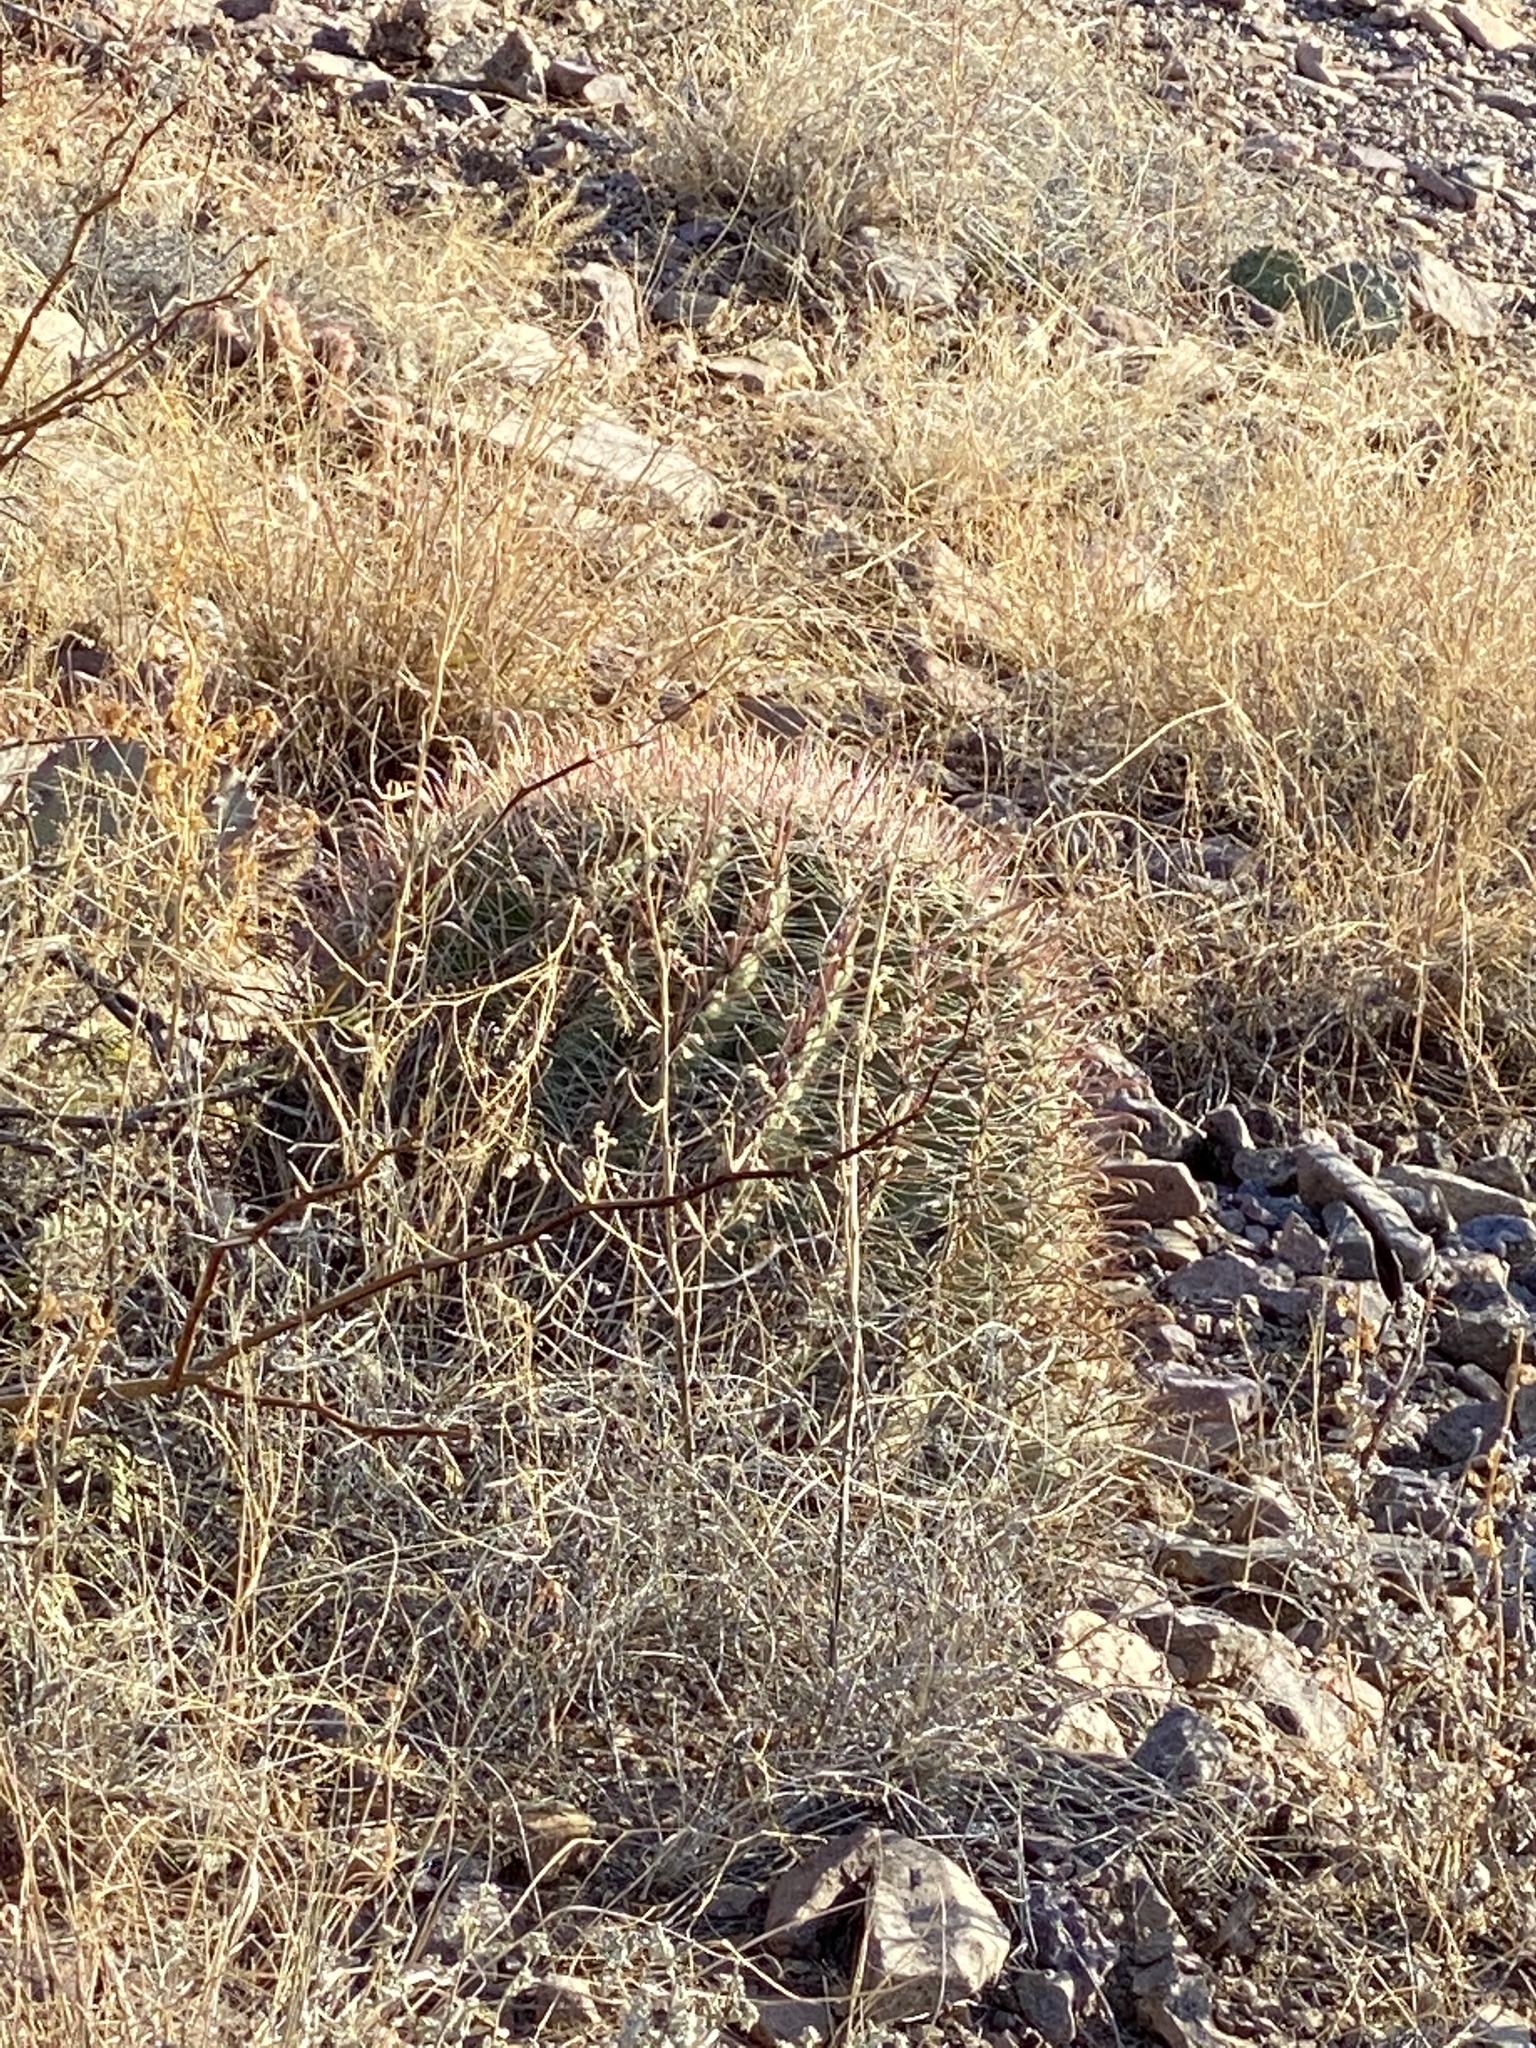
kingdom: Plantae
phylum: Tracheophyta
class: Magnoliopsida
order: Caryophyllales
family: Cactaceae
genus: Ferocactus
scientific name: Ferocactus wislizeni
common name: Candy barrel cactus
